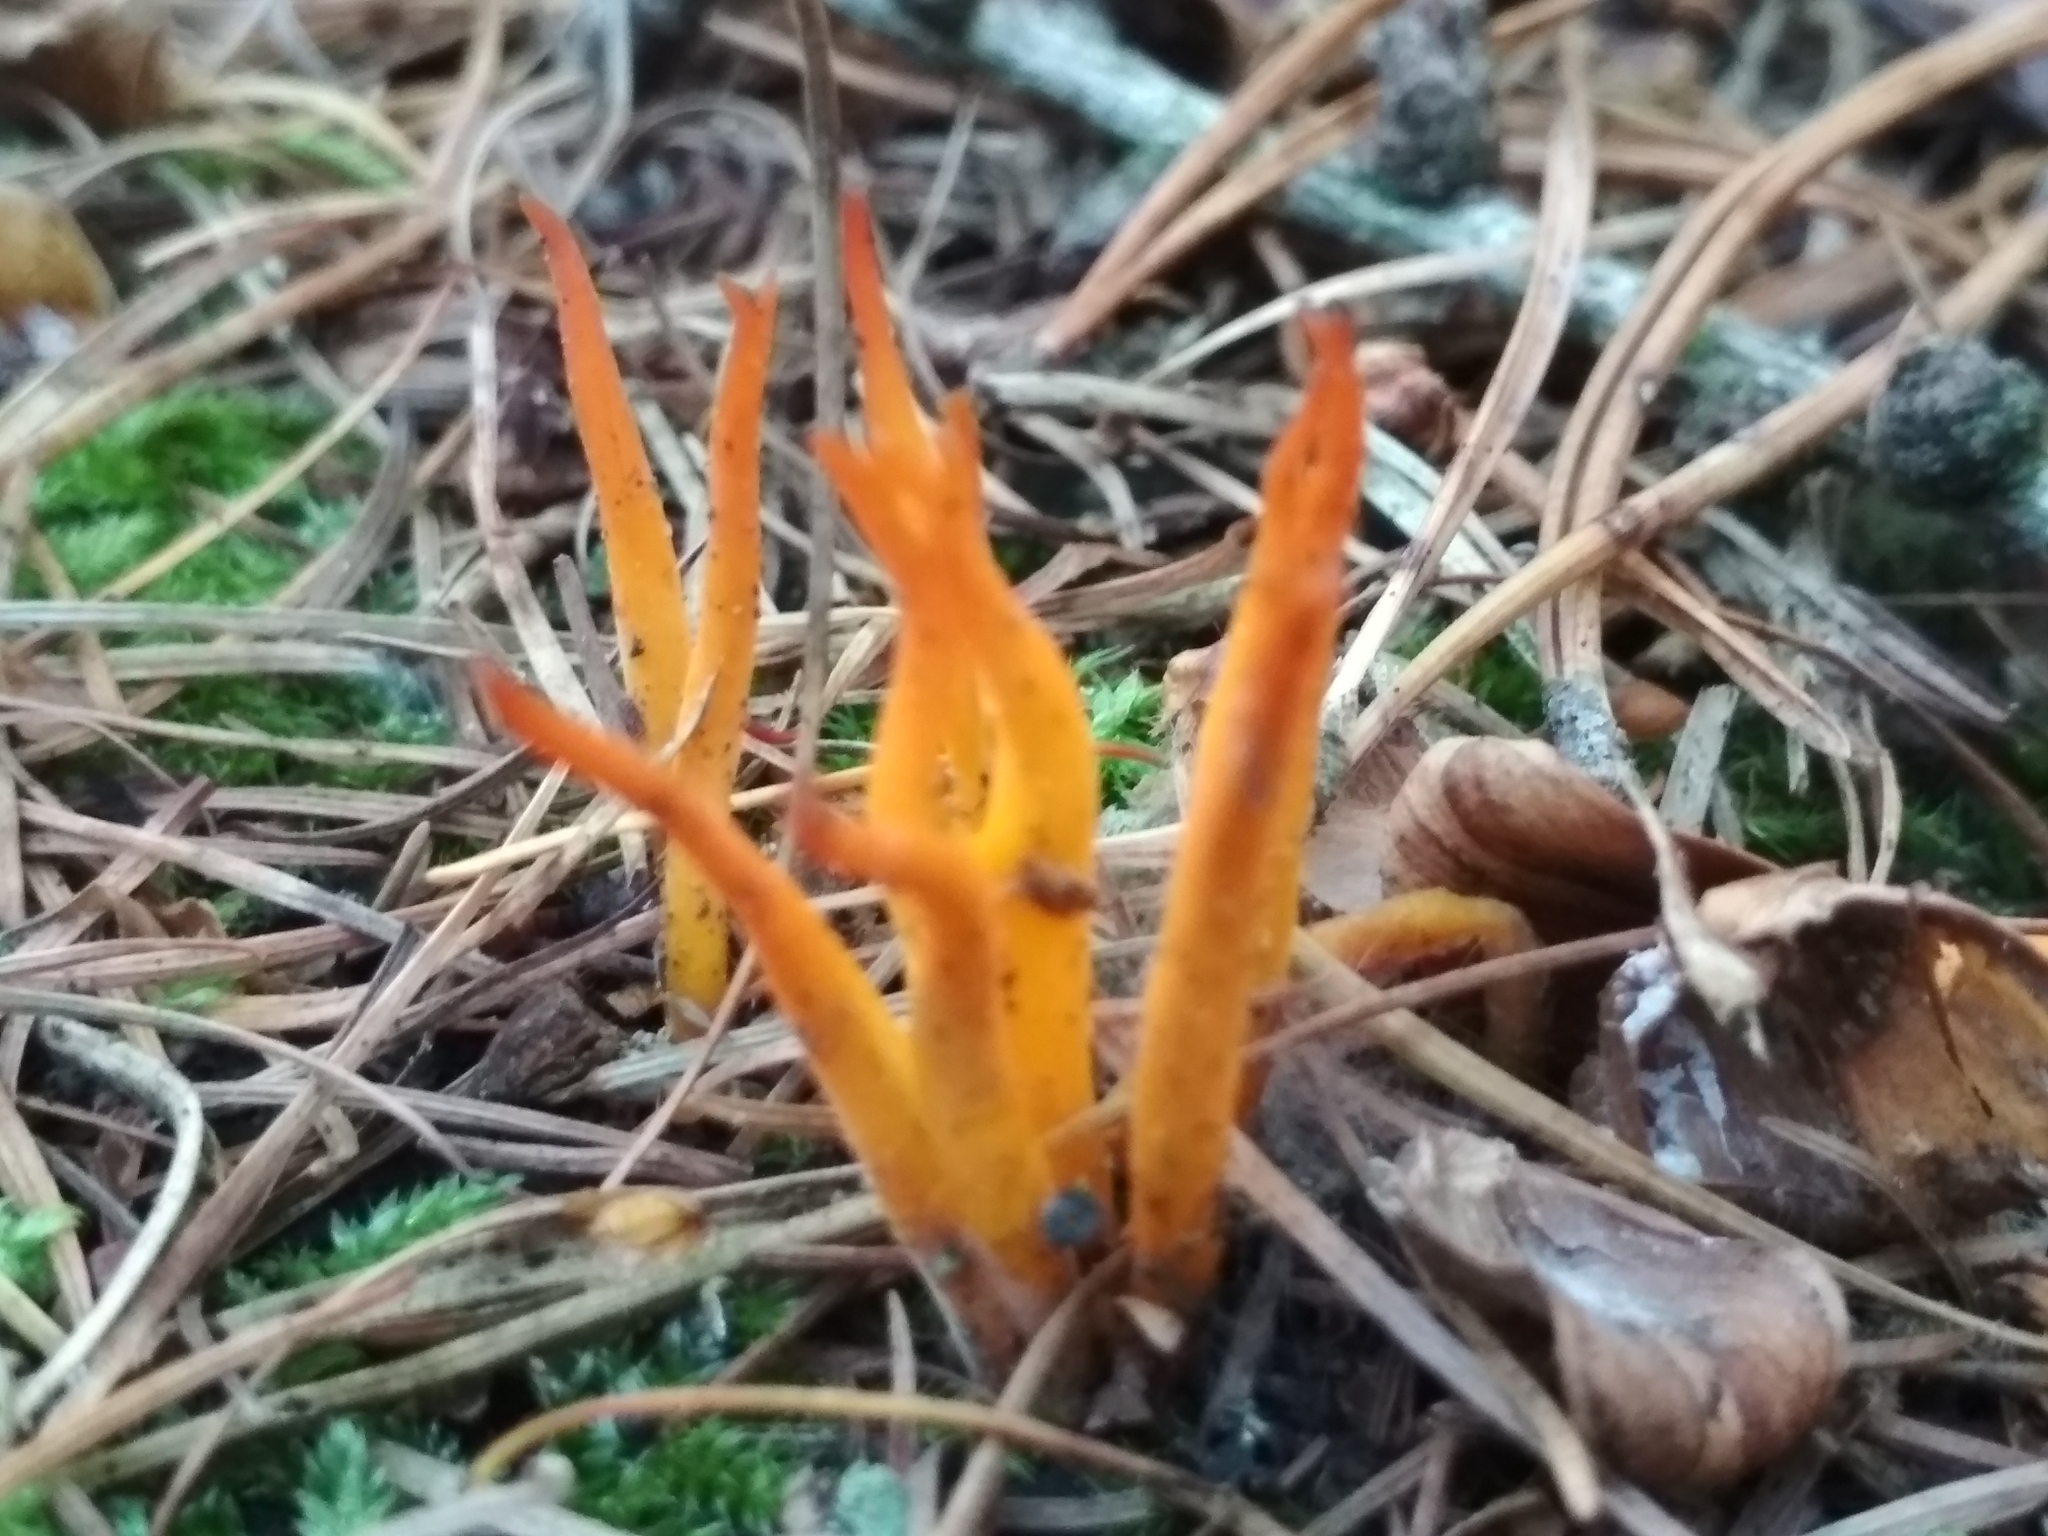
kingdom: Fungi
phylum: Basidiomycota
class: Dacrymycetes
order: Dacrymycetales
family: Dacrymycetaceae
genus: Calocera
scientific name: Calocera viscosa
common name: Yellow stagshorn
